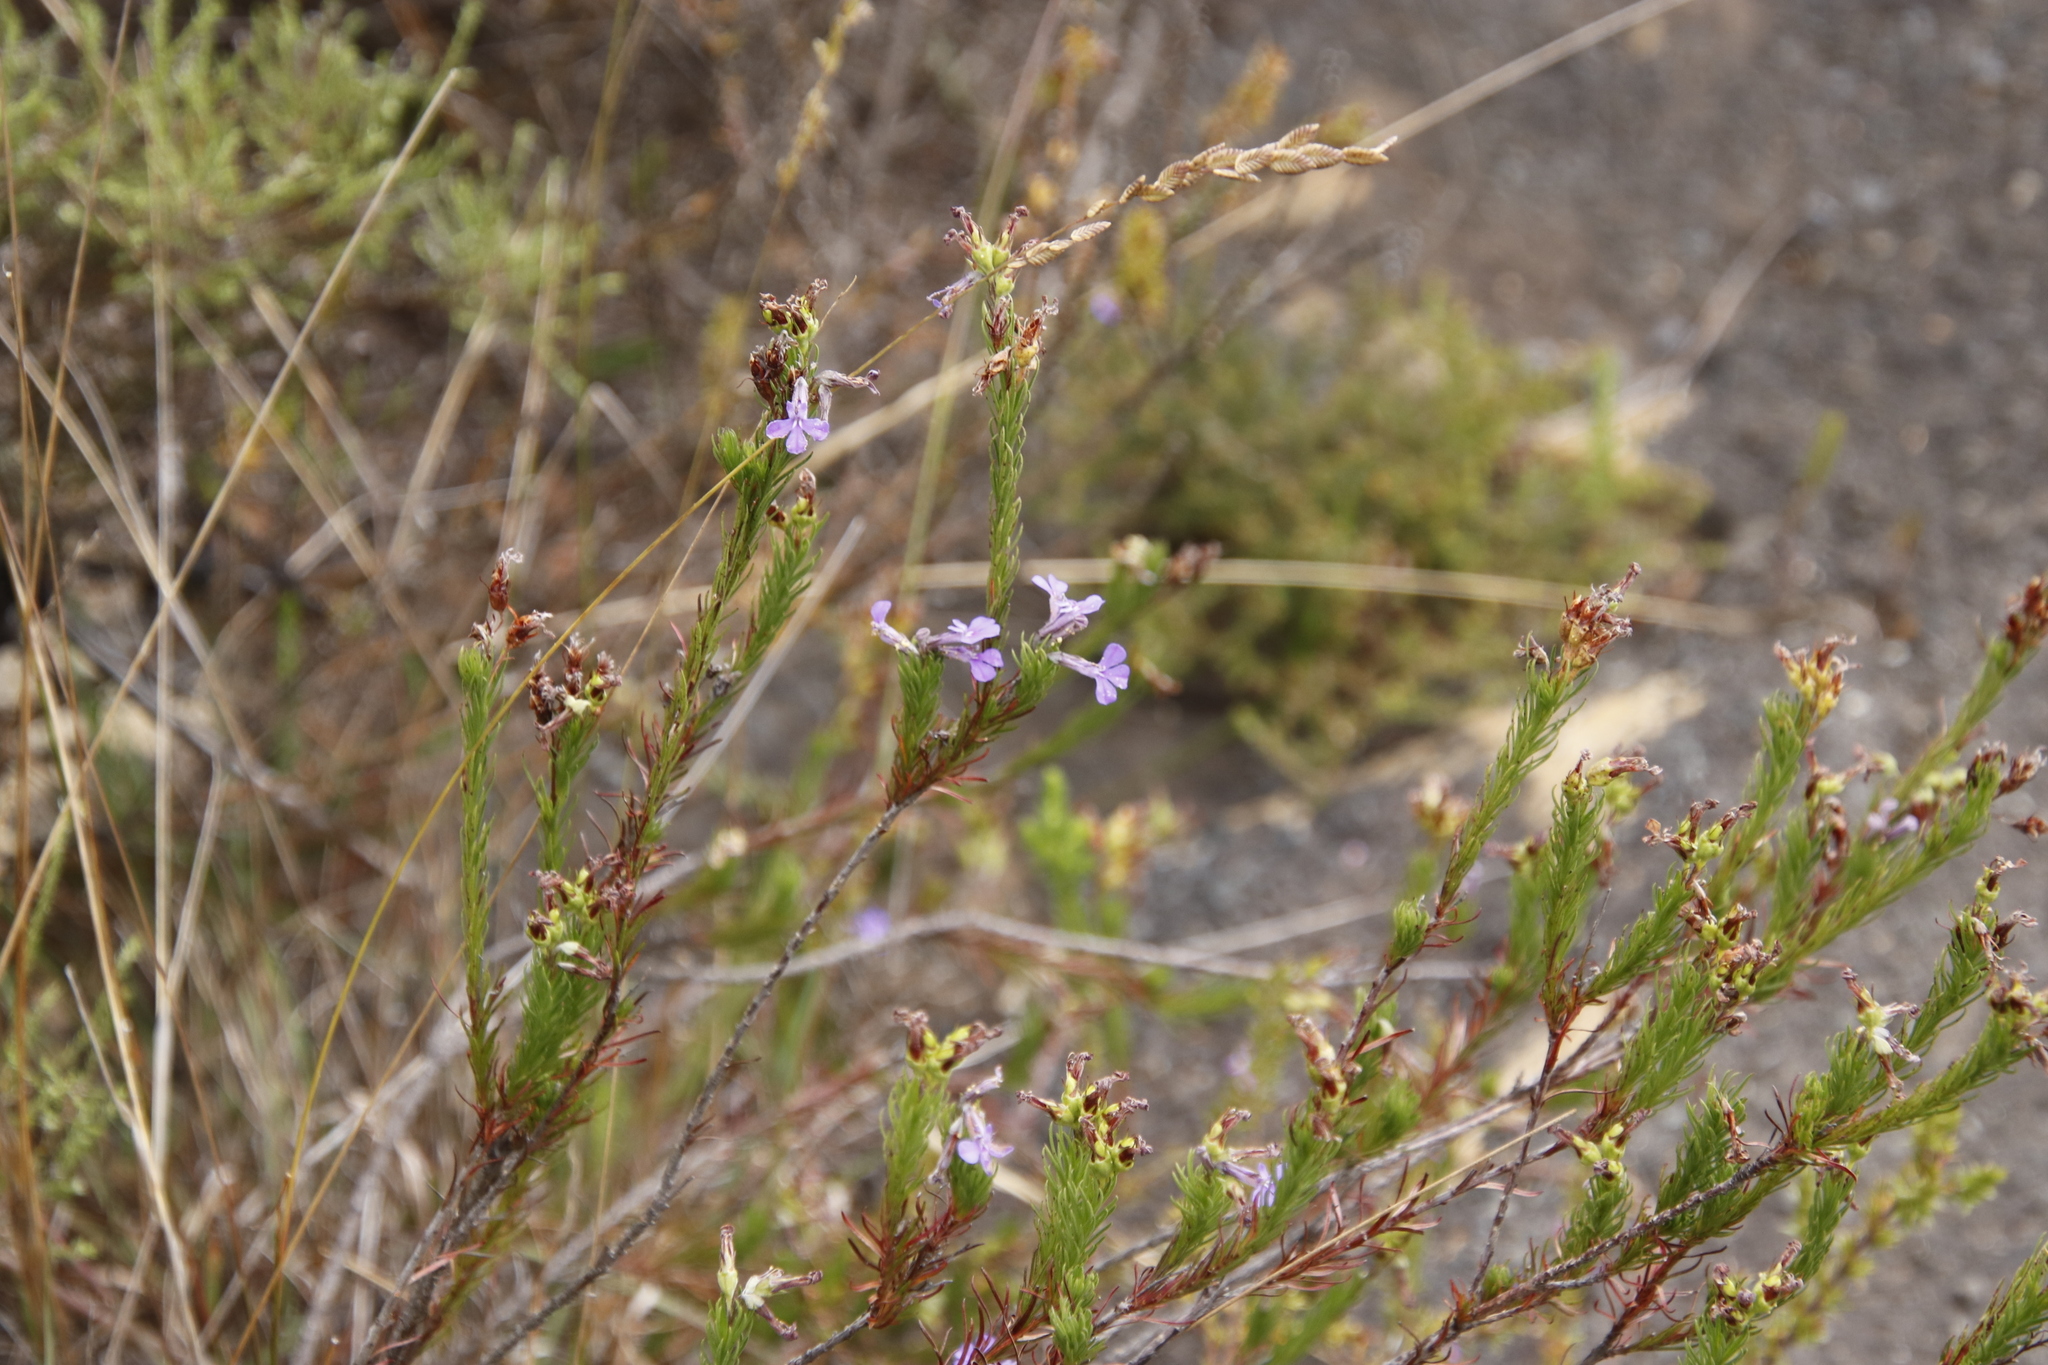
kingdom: Plantae
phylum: Tracheophyta
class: Magnoliopsida
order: Asterales
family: Campanulaceae
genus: Lobelia
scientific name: Lobelia pinifolia
